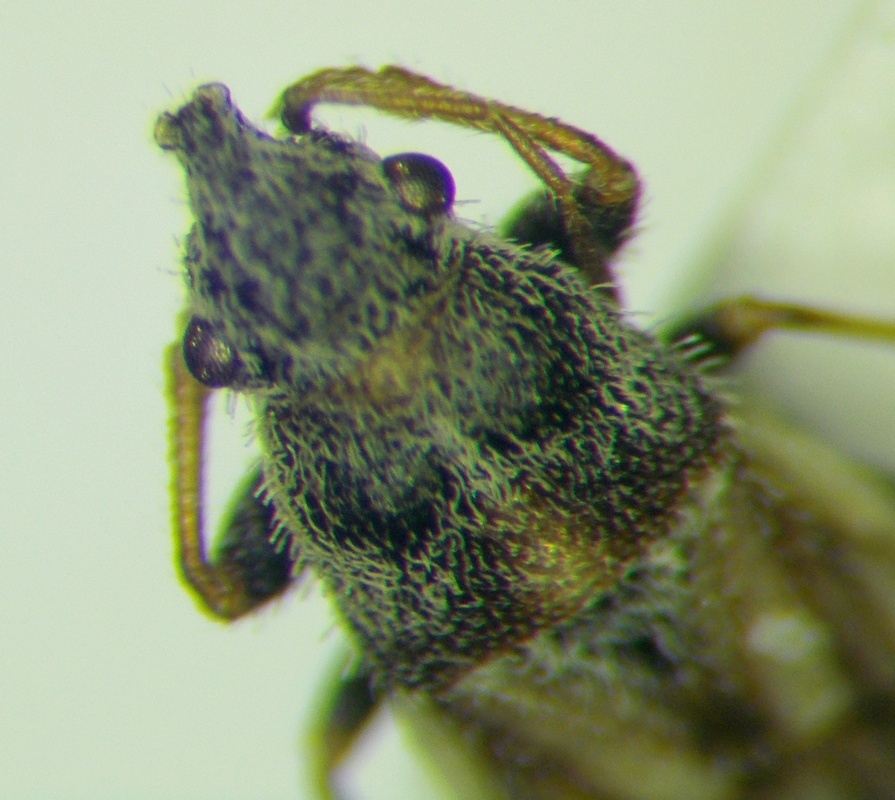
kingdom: Animalia
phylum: Arthropoda
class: Insecta
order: Hemiptera
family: Oxycarenidae
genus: Camptotelus
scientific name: Camptotelus lineolatus
